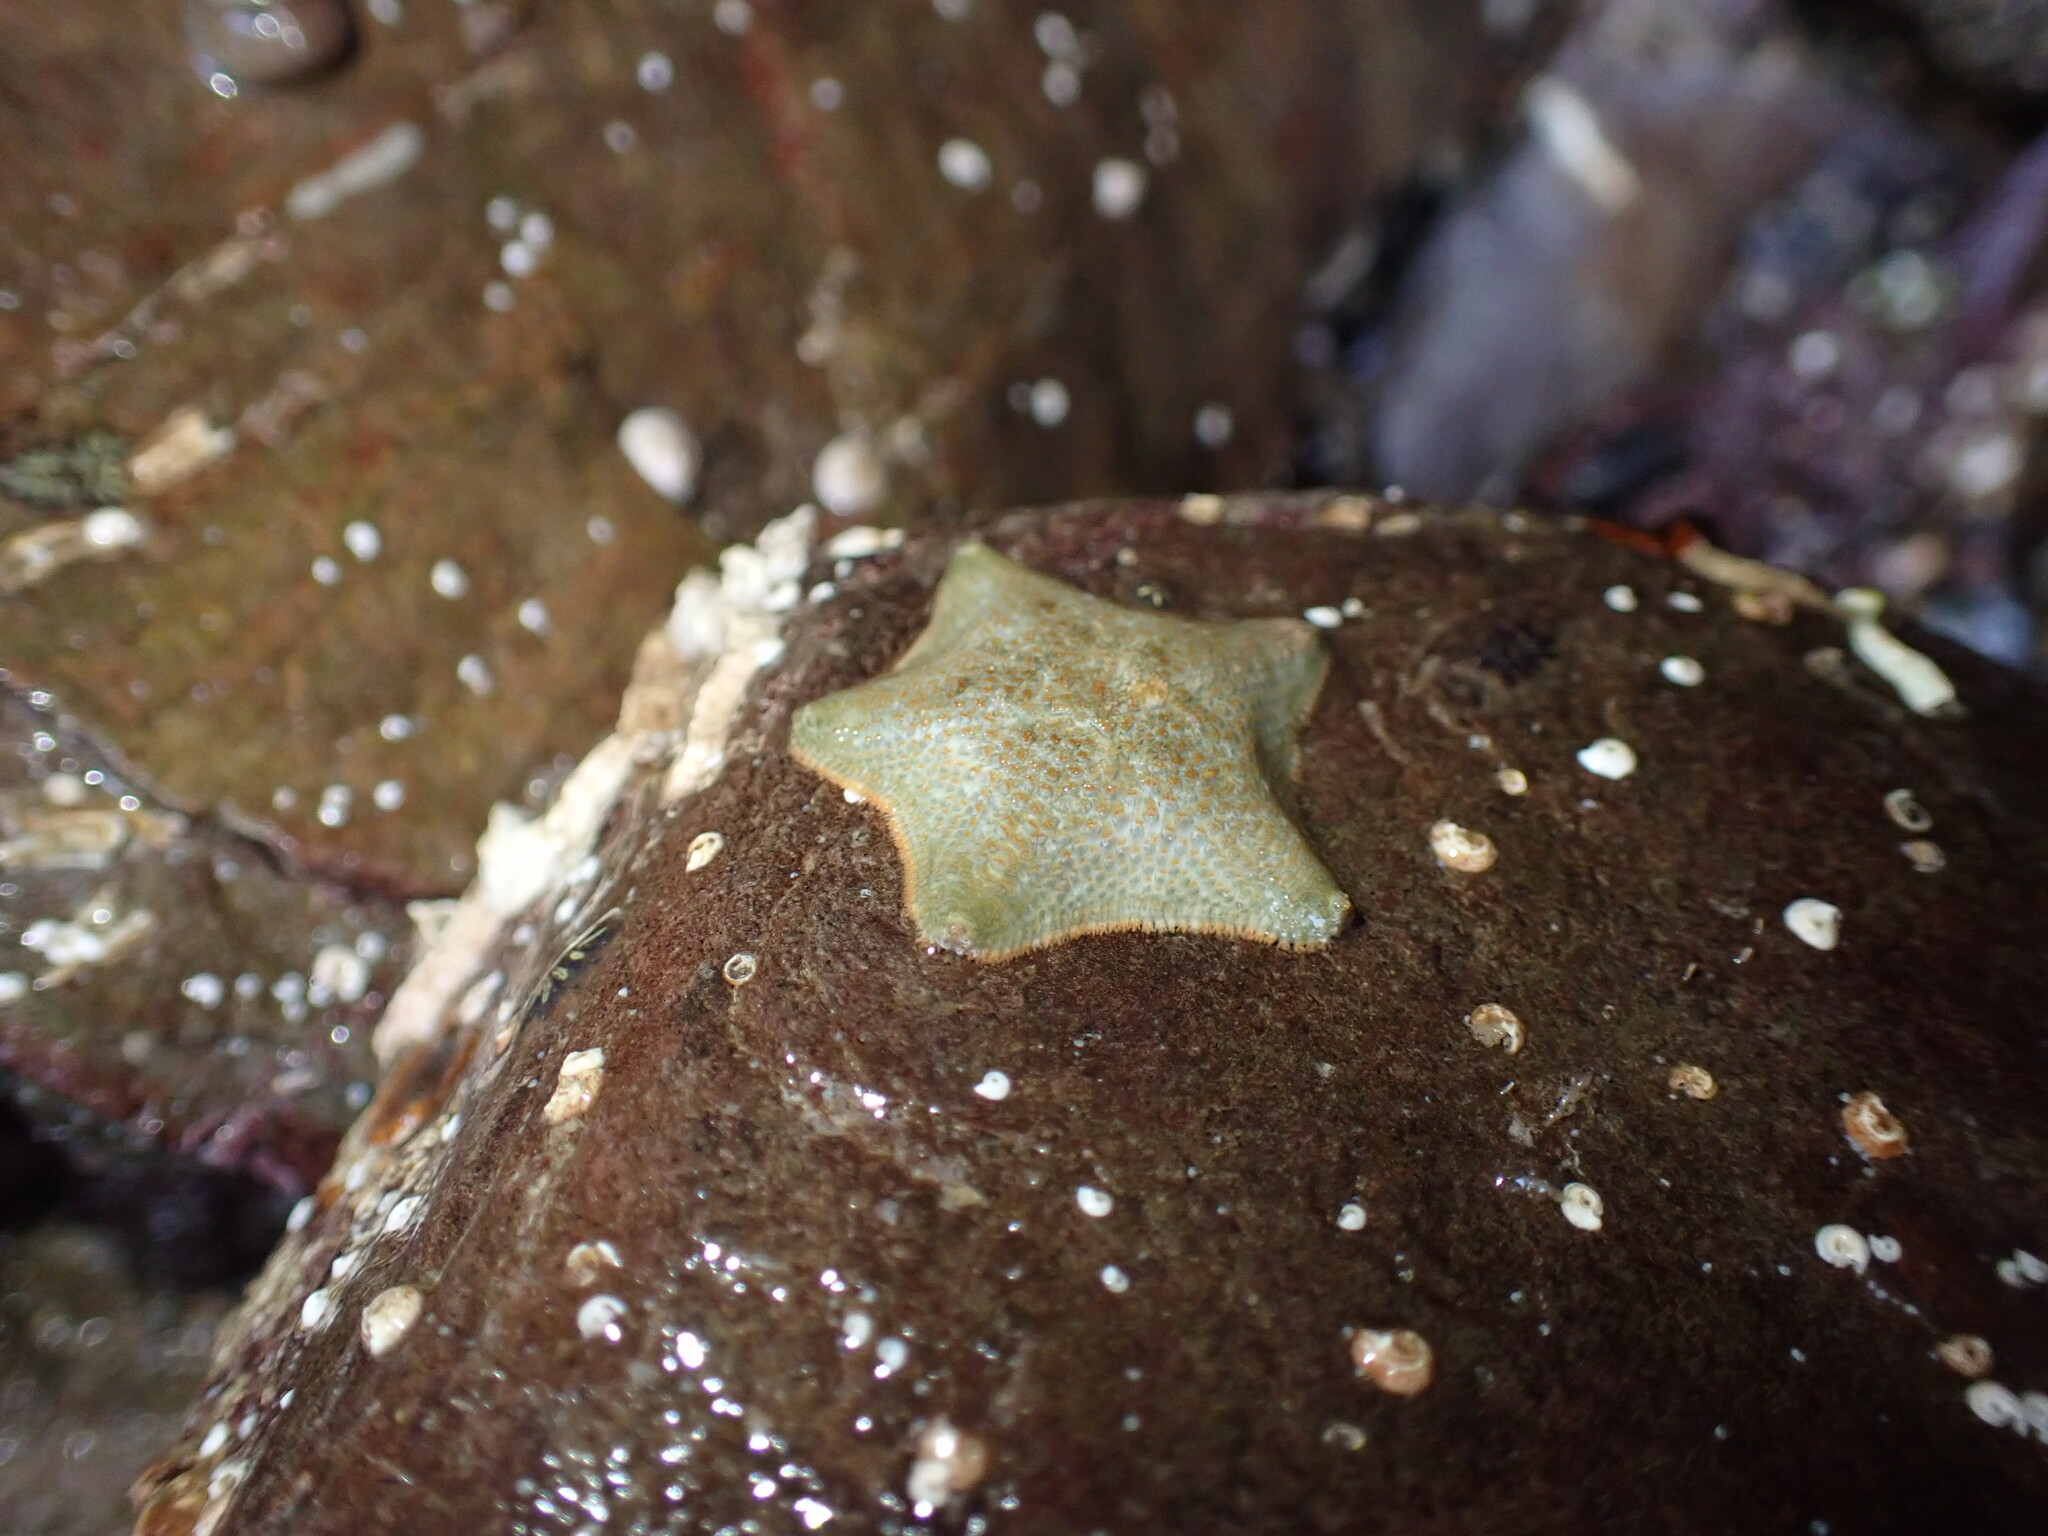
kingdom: Animalia
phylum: Echinodermata
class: Asteroidea
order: Valvatida
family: Asterinidae
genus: Asterina
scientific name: Asterina gibbosa
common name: Cushion star
